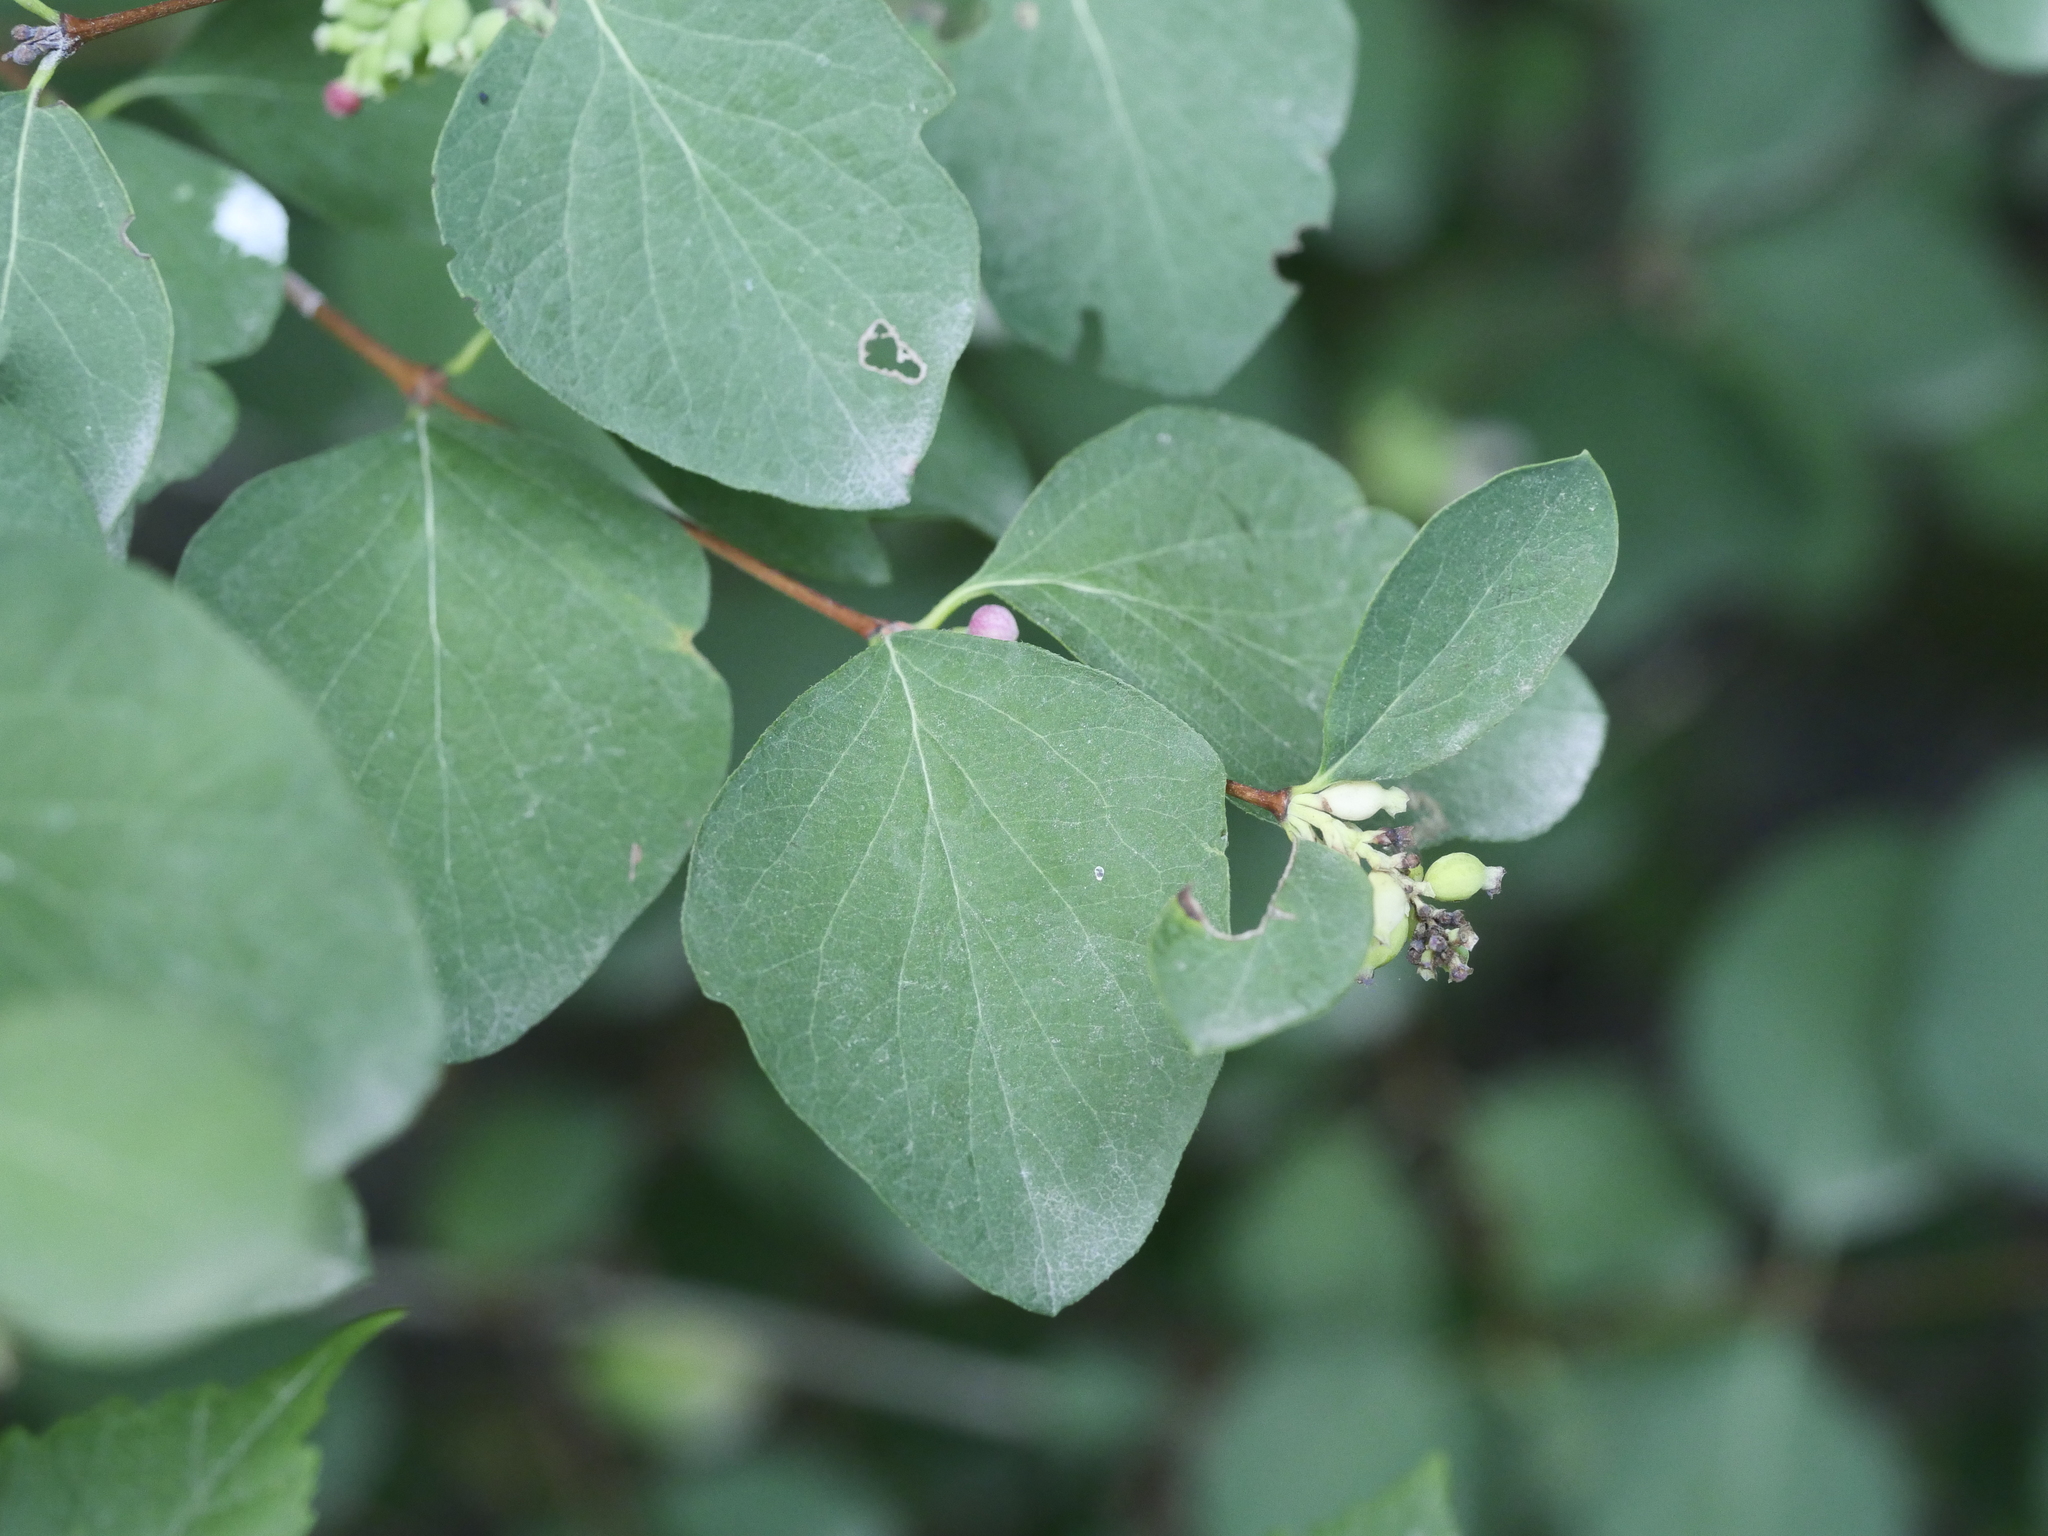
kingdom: Plantae
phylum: Tracheophyta
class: Magnoliopsida
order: Dipsacales
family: Caprifoliaceae
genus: Symphoricarpos
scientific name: Symphoricarpos albus
